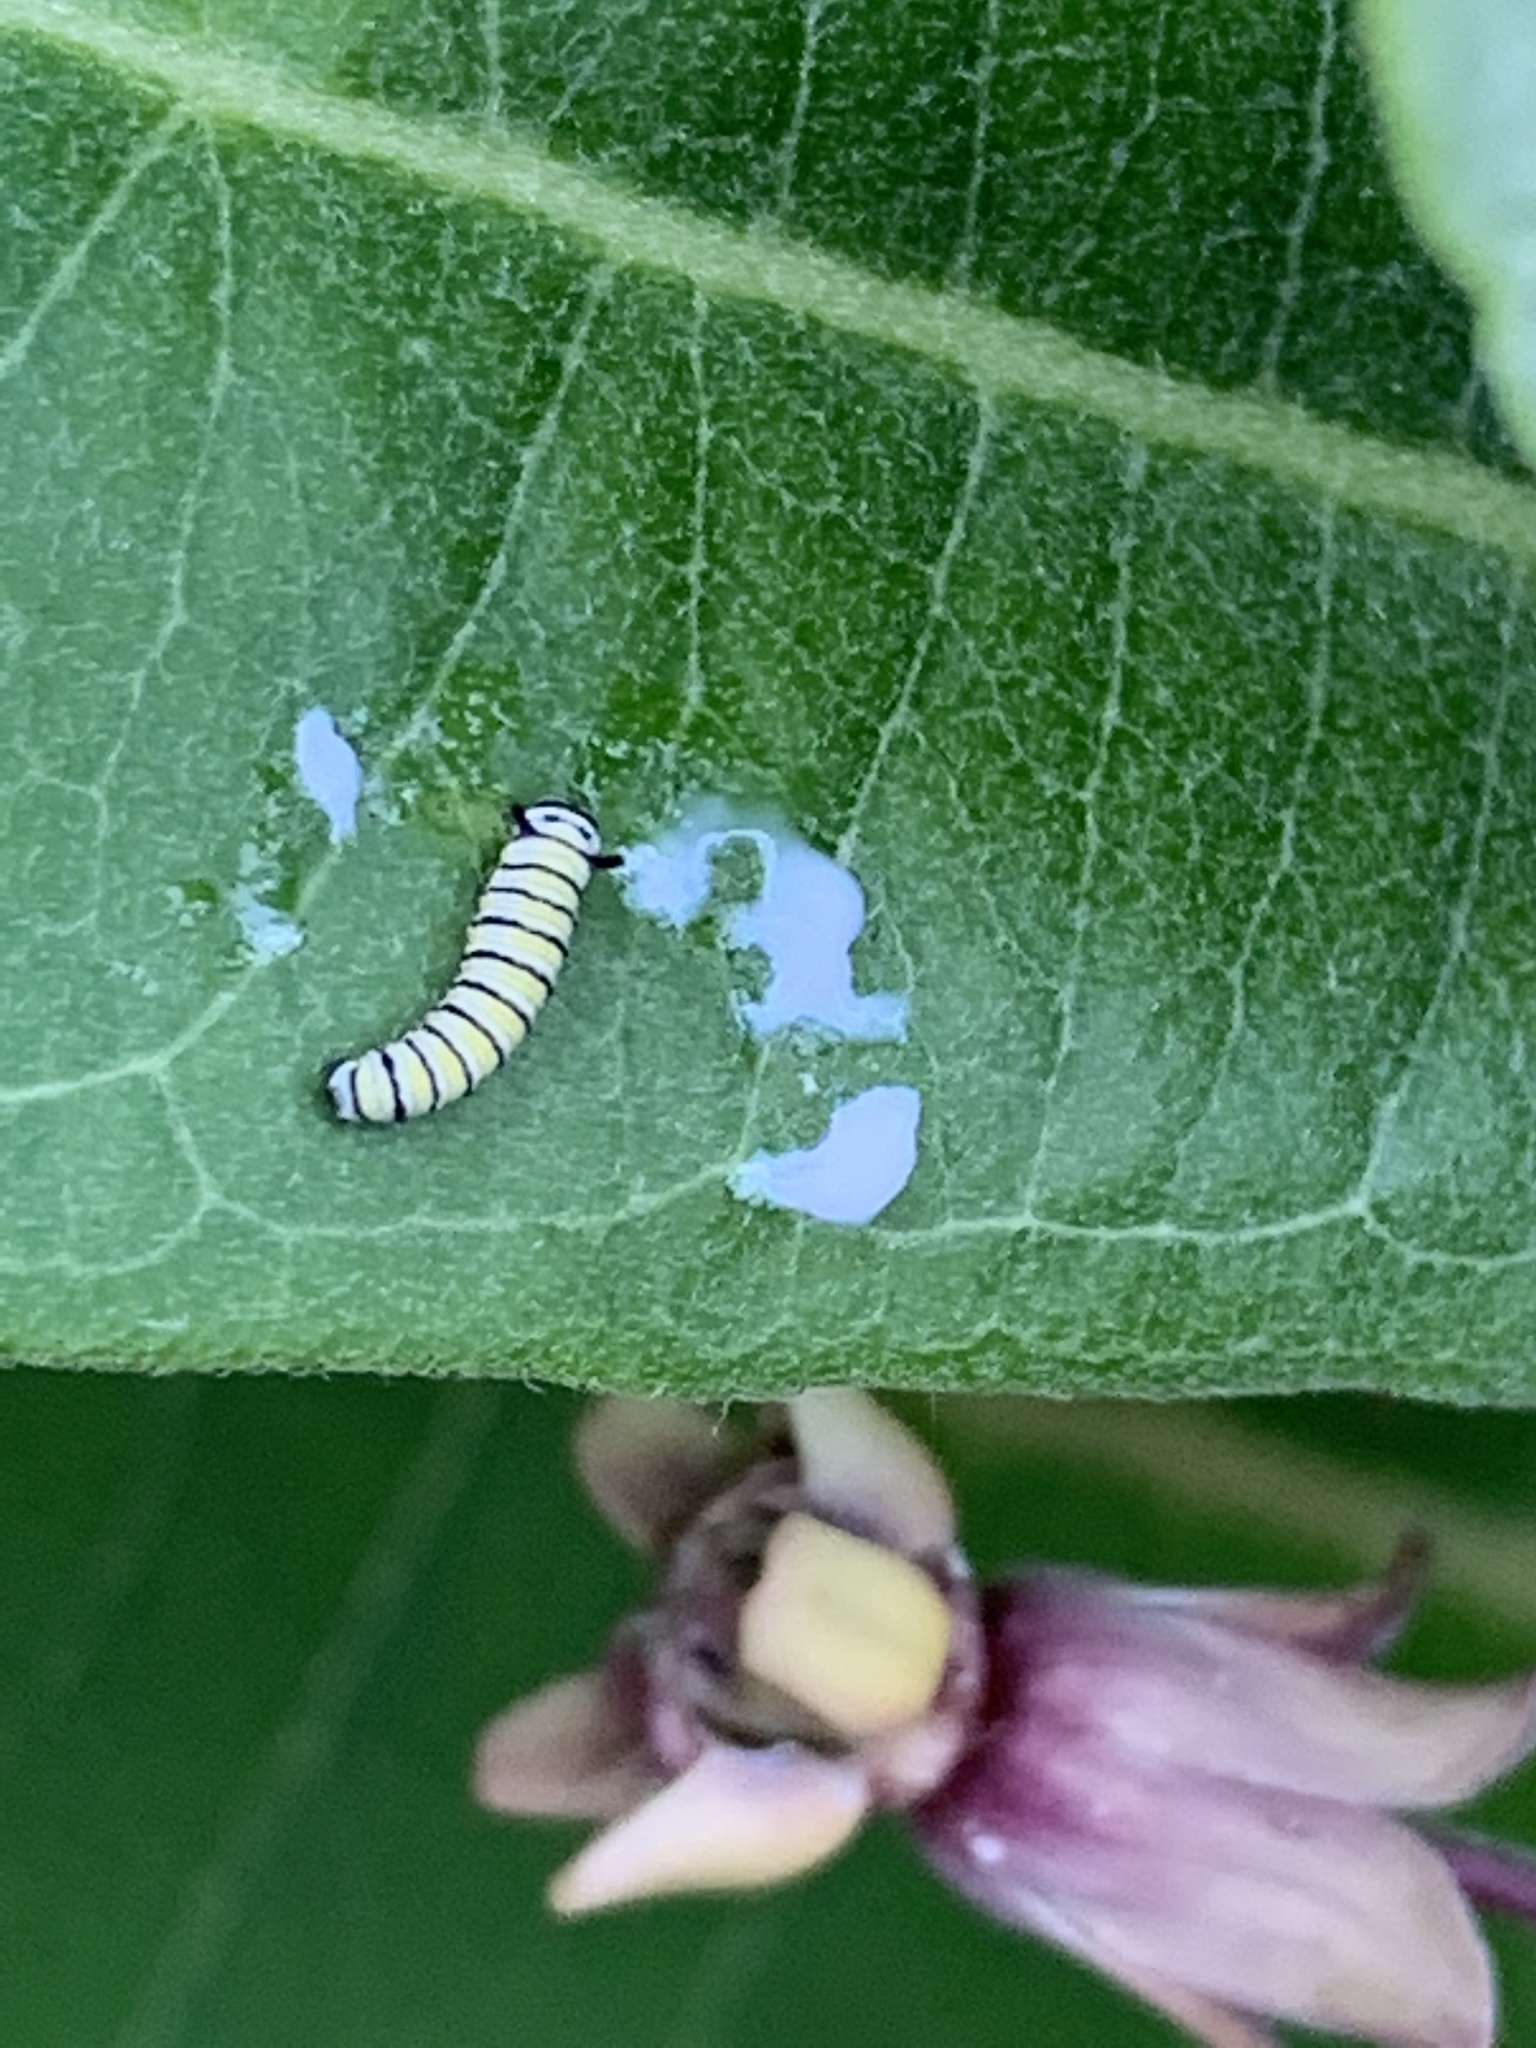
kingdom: Animalia
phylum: Arthropoda
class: Insecta
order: Lepidoptera
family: Nymphalidae
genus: Danaus
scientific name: Danaus plexippus
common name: Monarch
